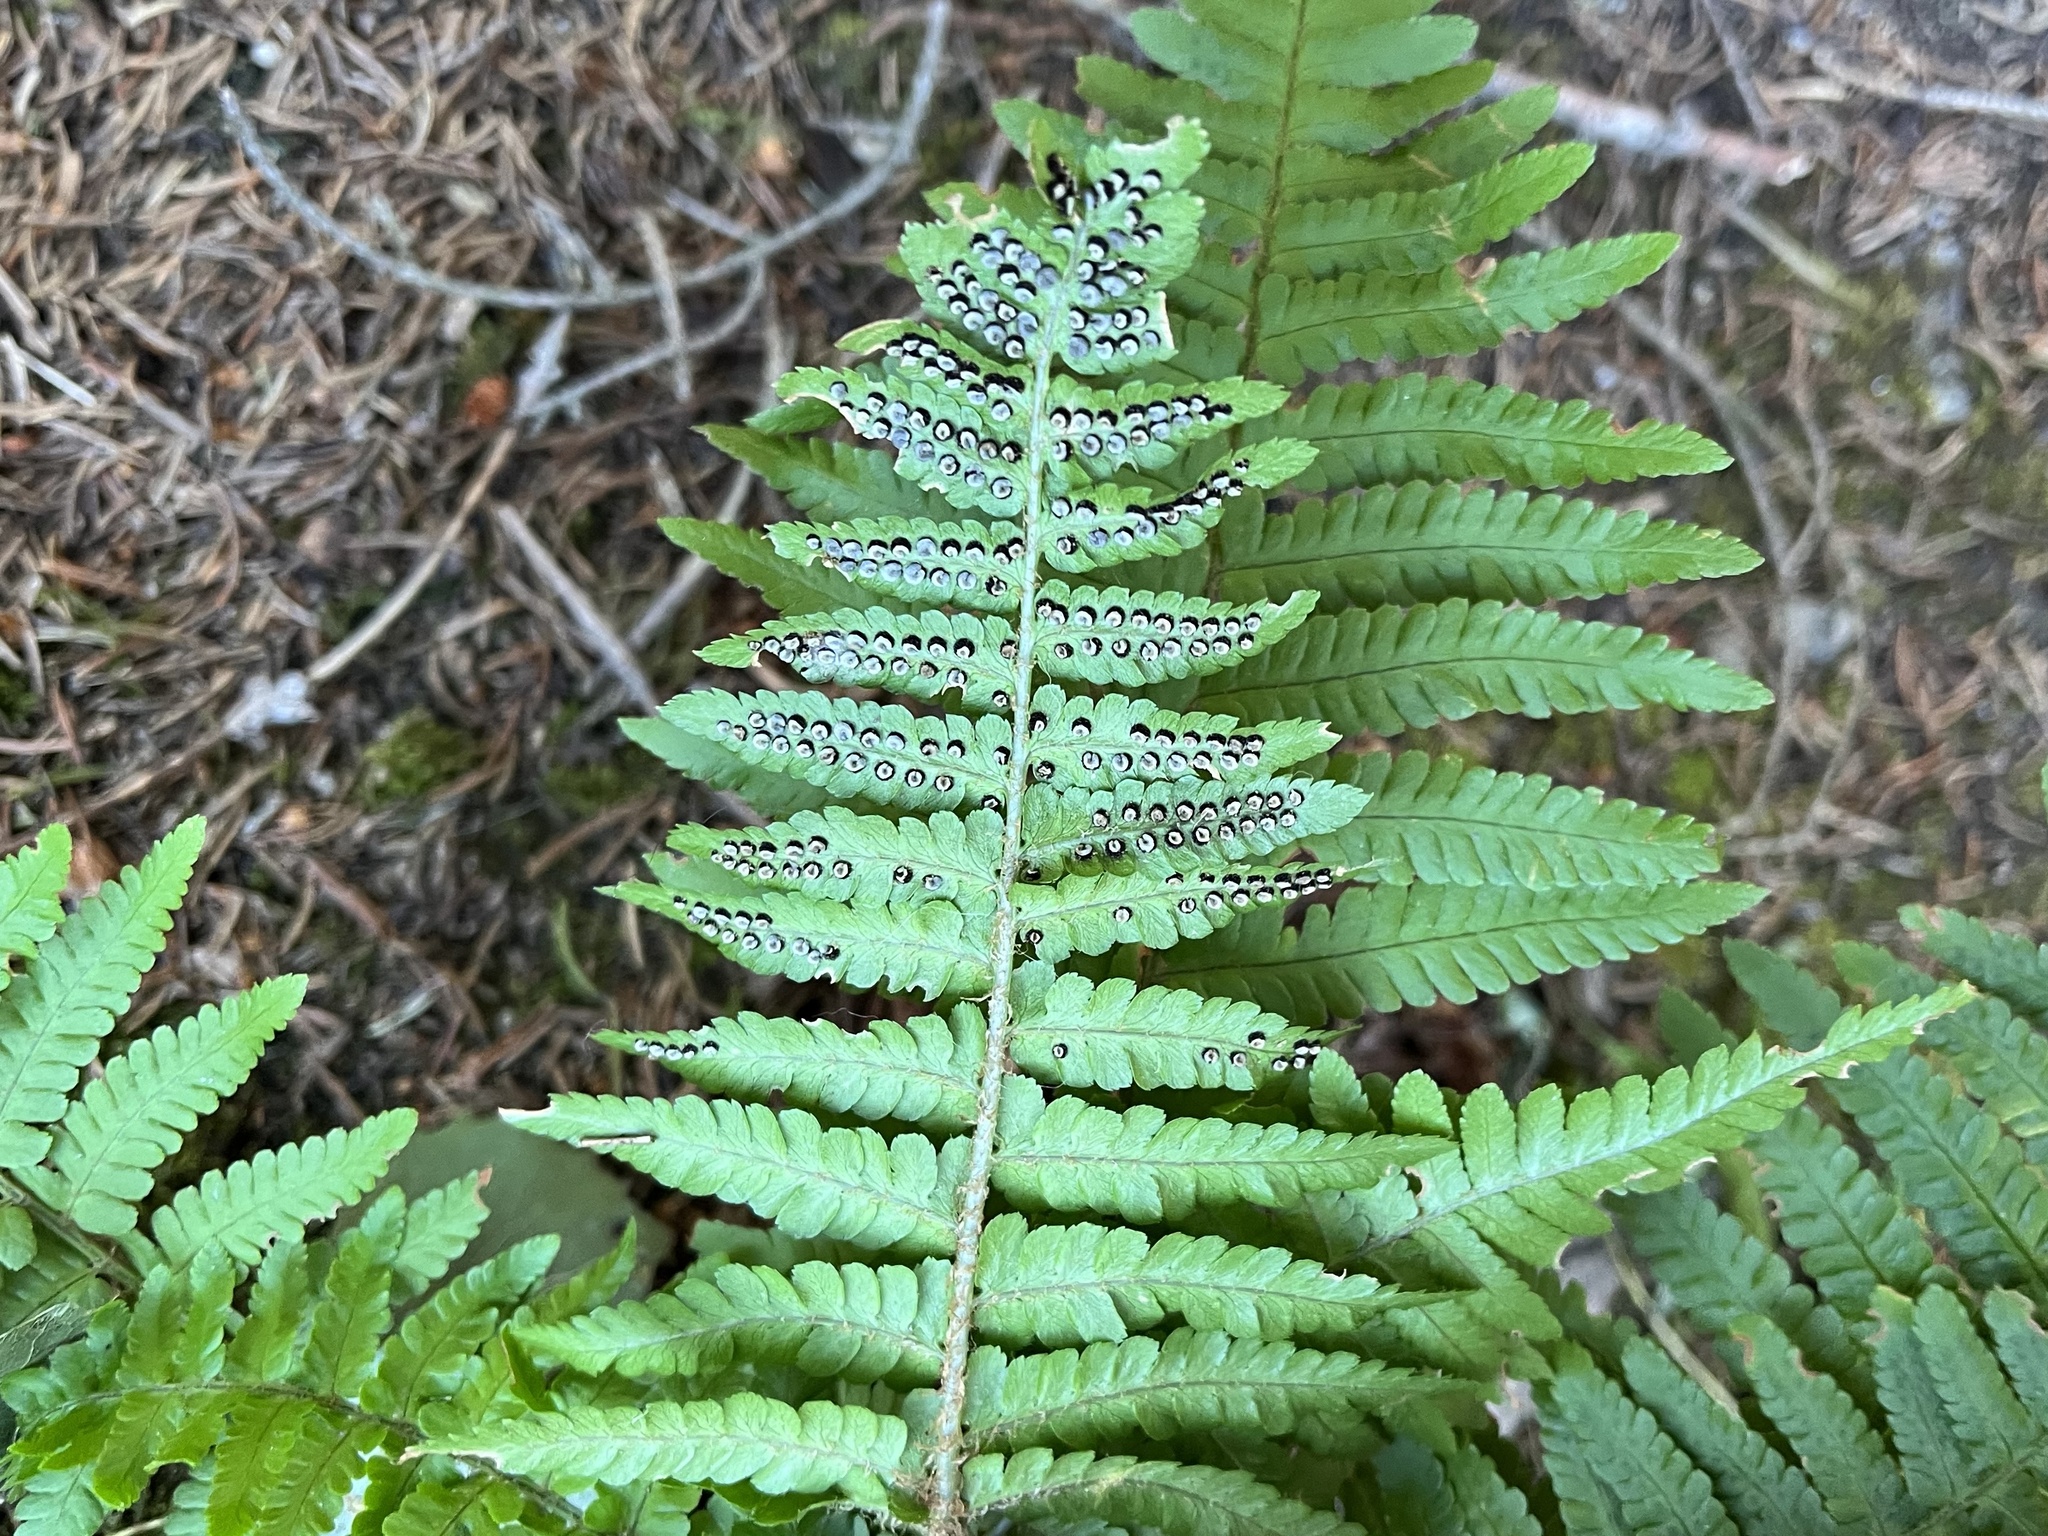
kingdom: Plantae
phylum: Tracheophyta
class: Polypodiopsida
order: Polypodiales
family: Dryopteridaceae
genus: Dryopteris
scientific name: Dryopteris filix-mas
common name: Male fern
